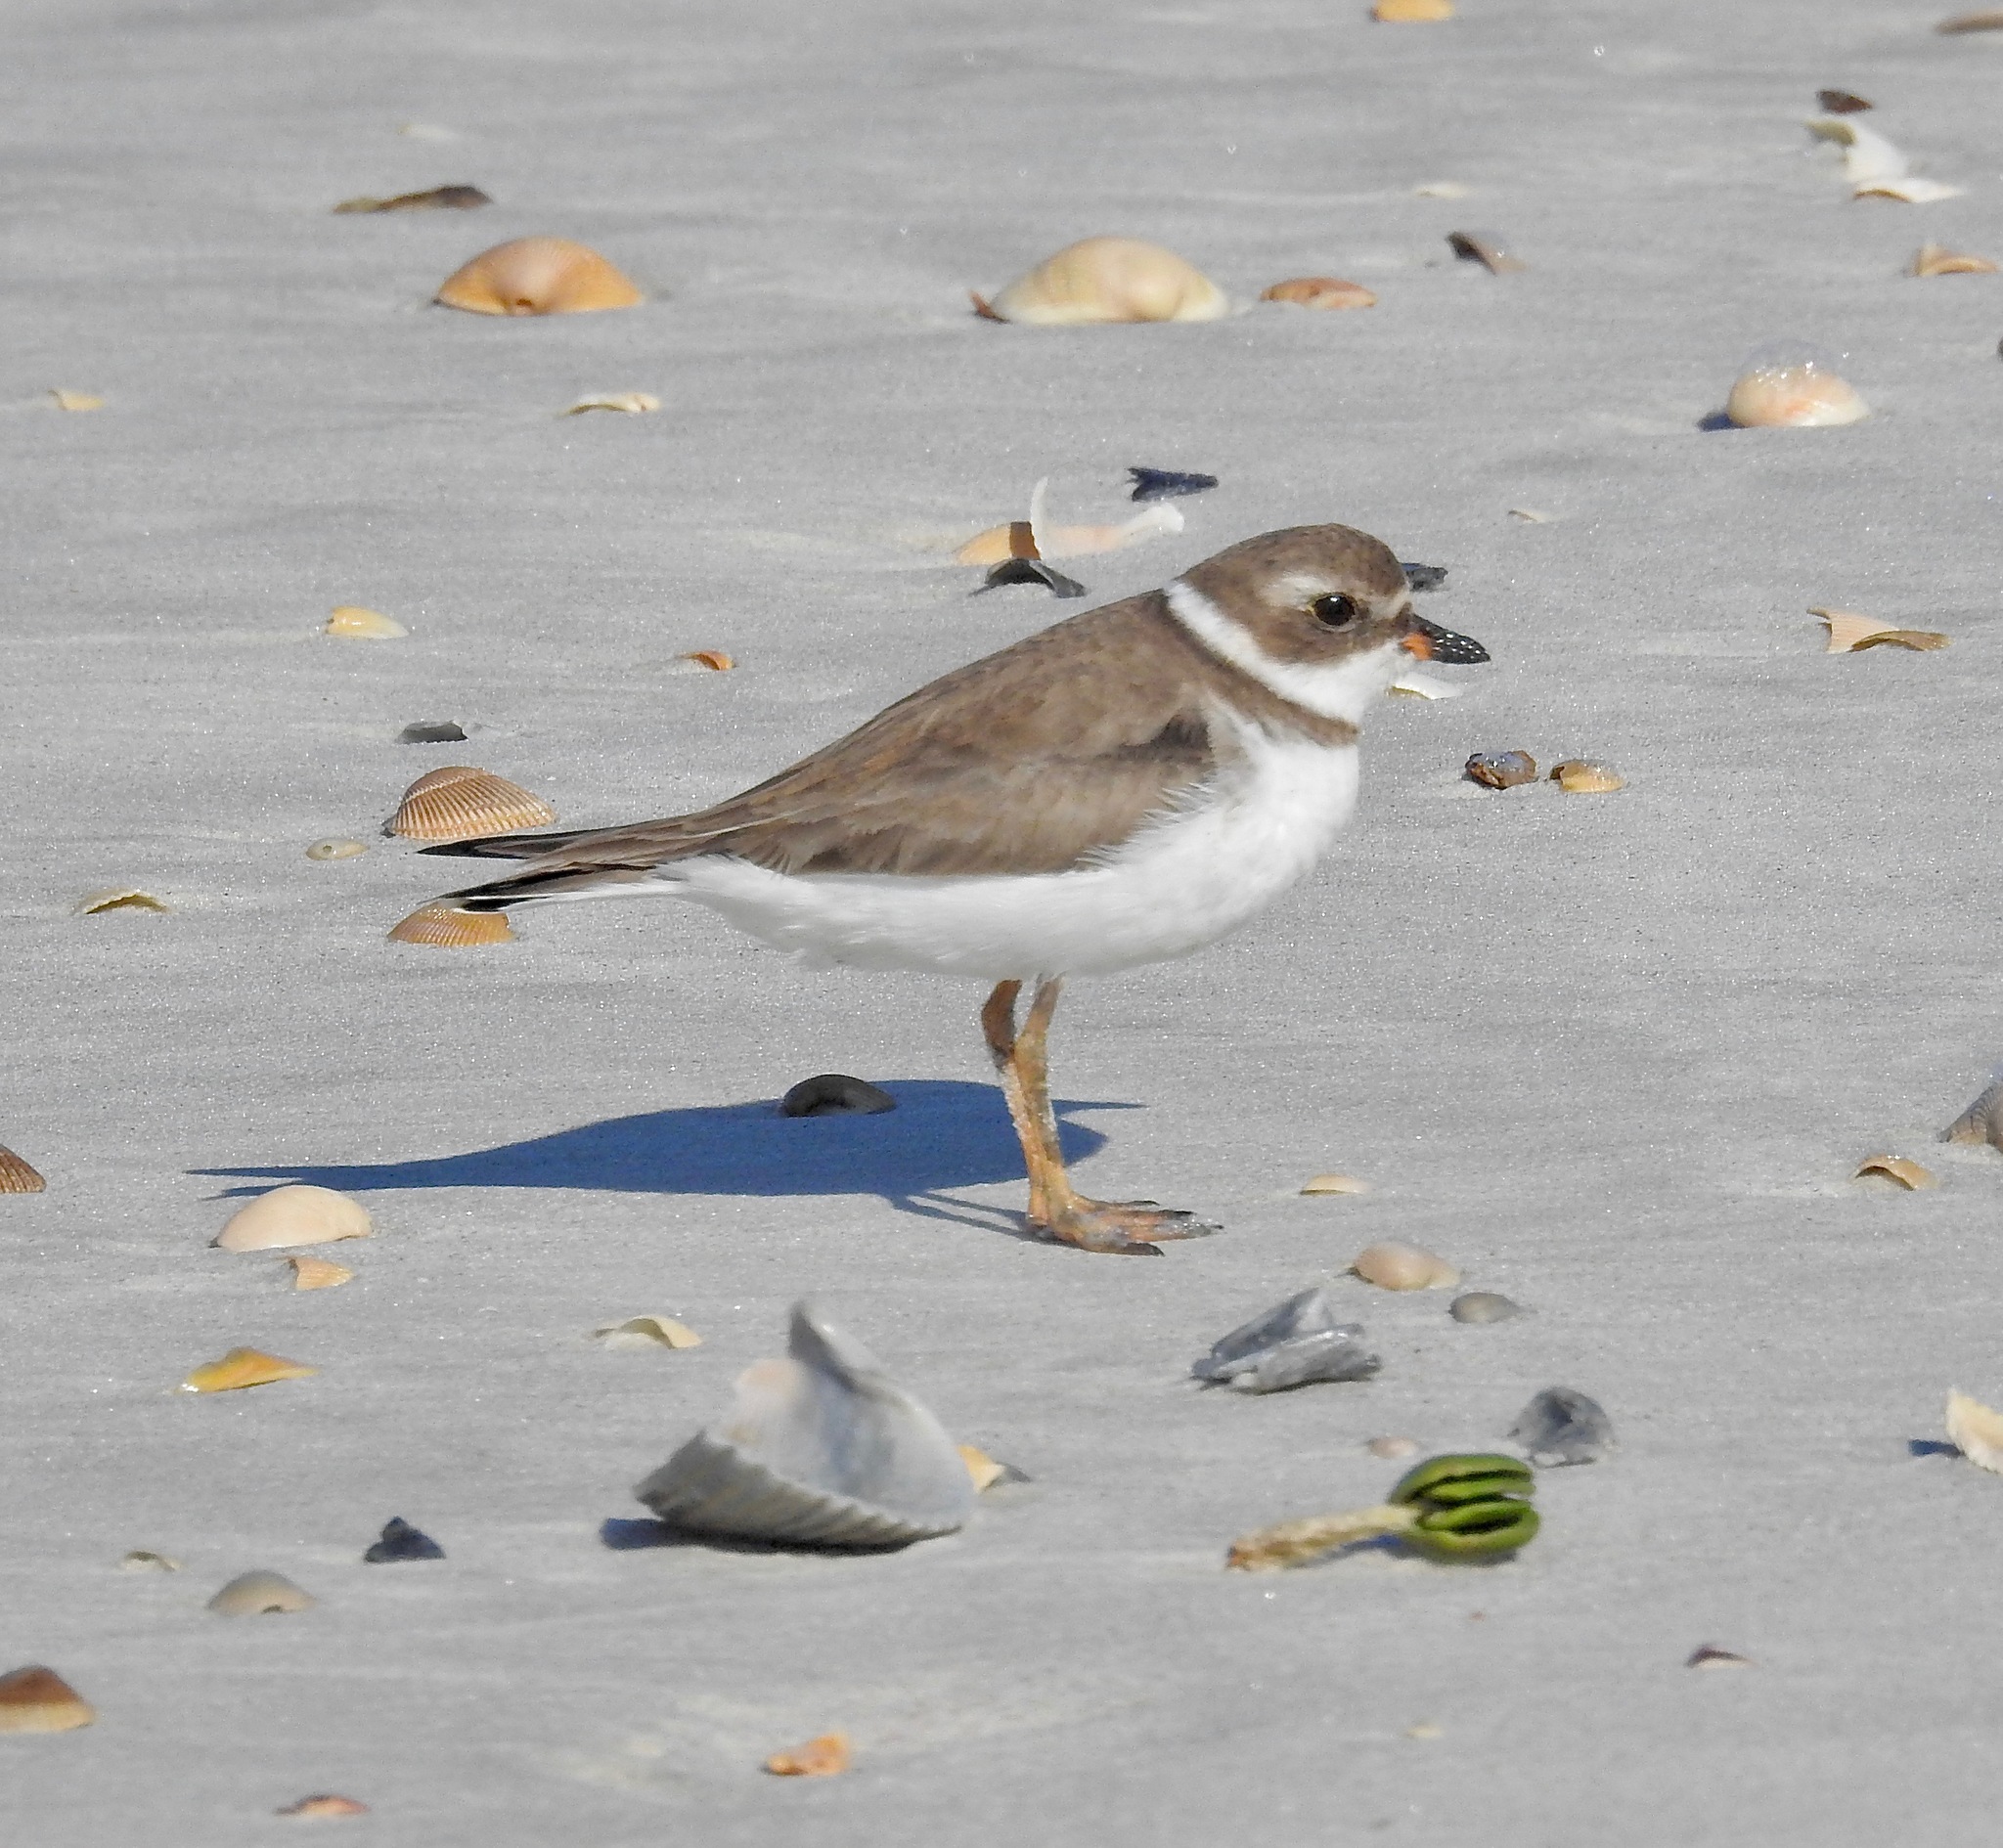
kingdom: Animalia
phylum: Chordata
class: Aves
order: Charadriiformes
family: Charadriidae
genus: Charadrius
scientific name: Charadrius semipalmatus
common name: Semipalmated plover
